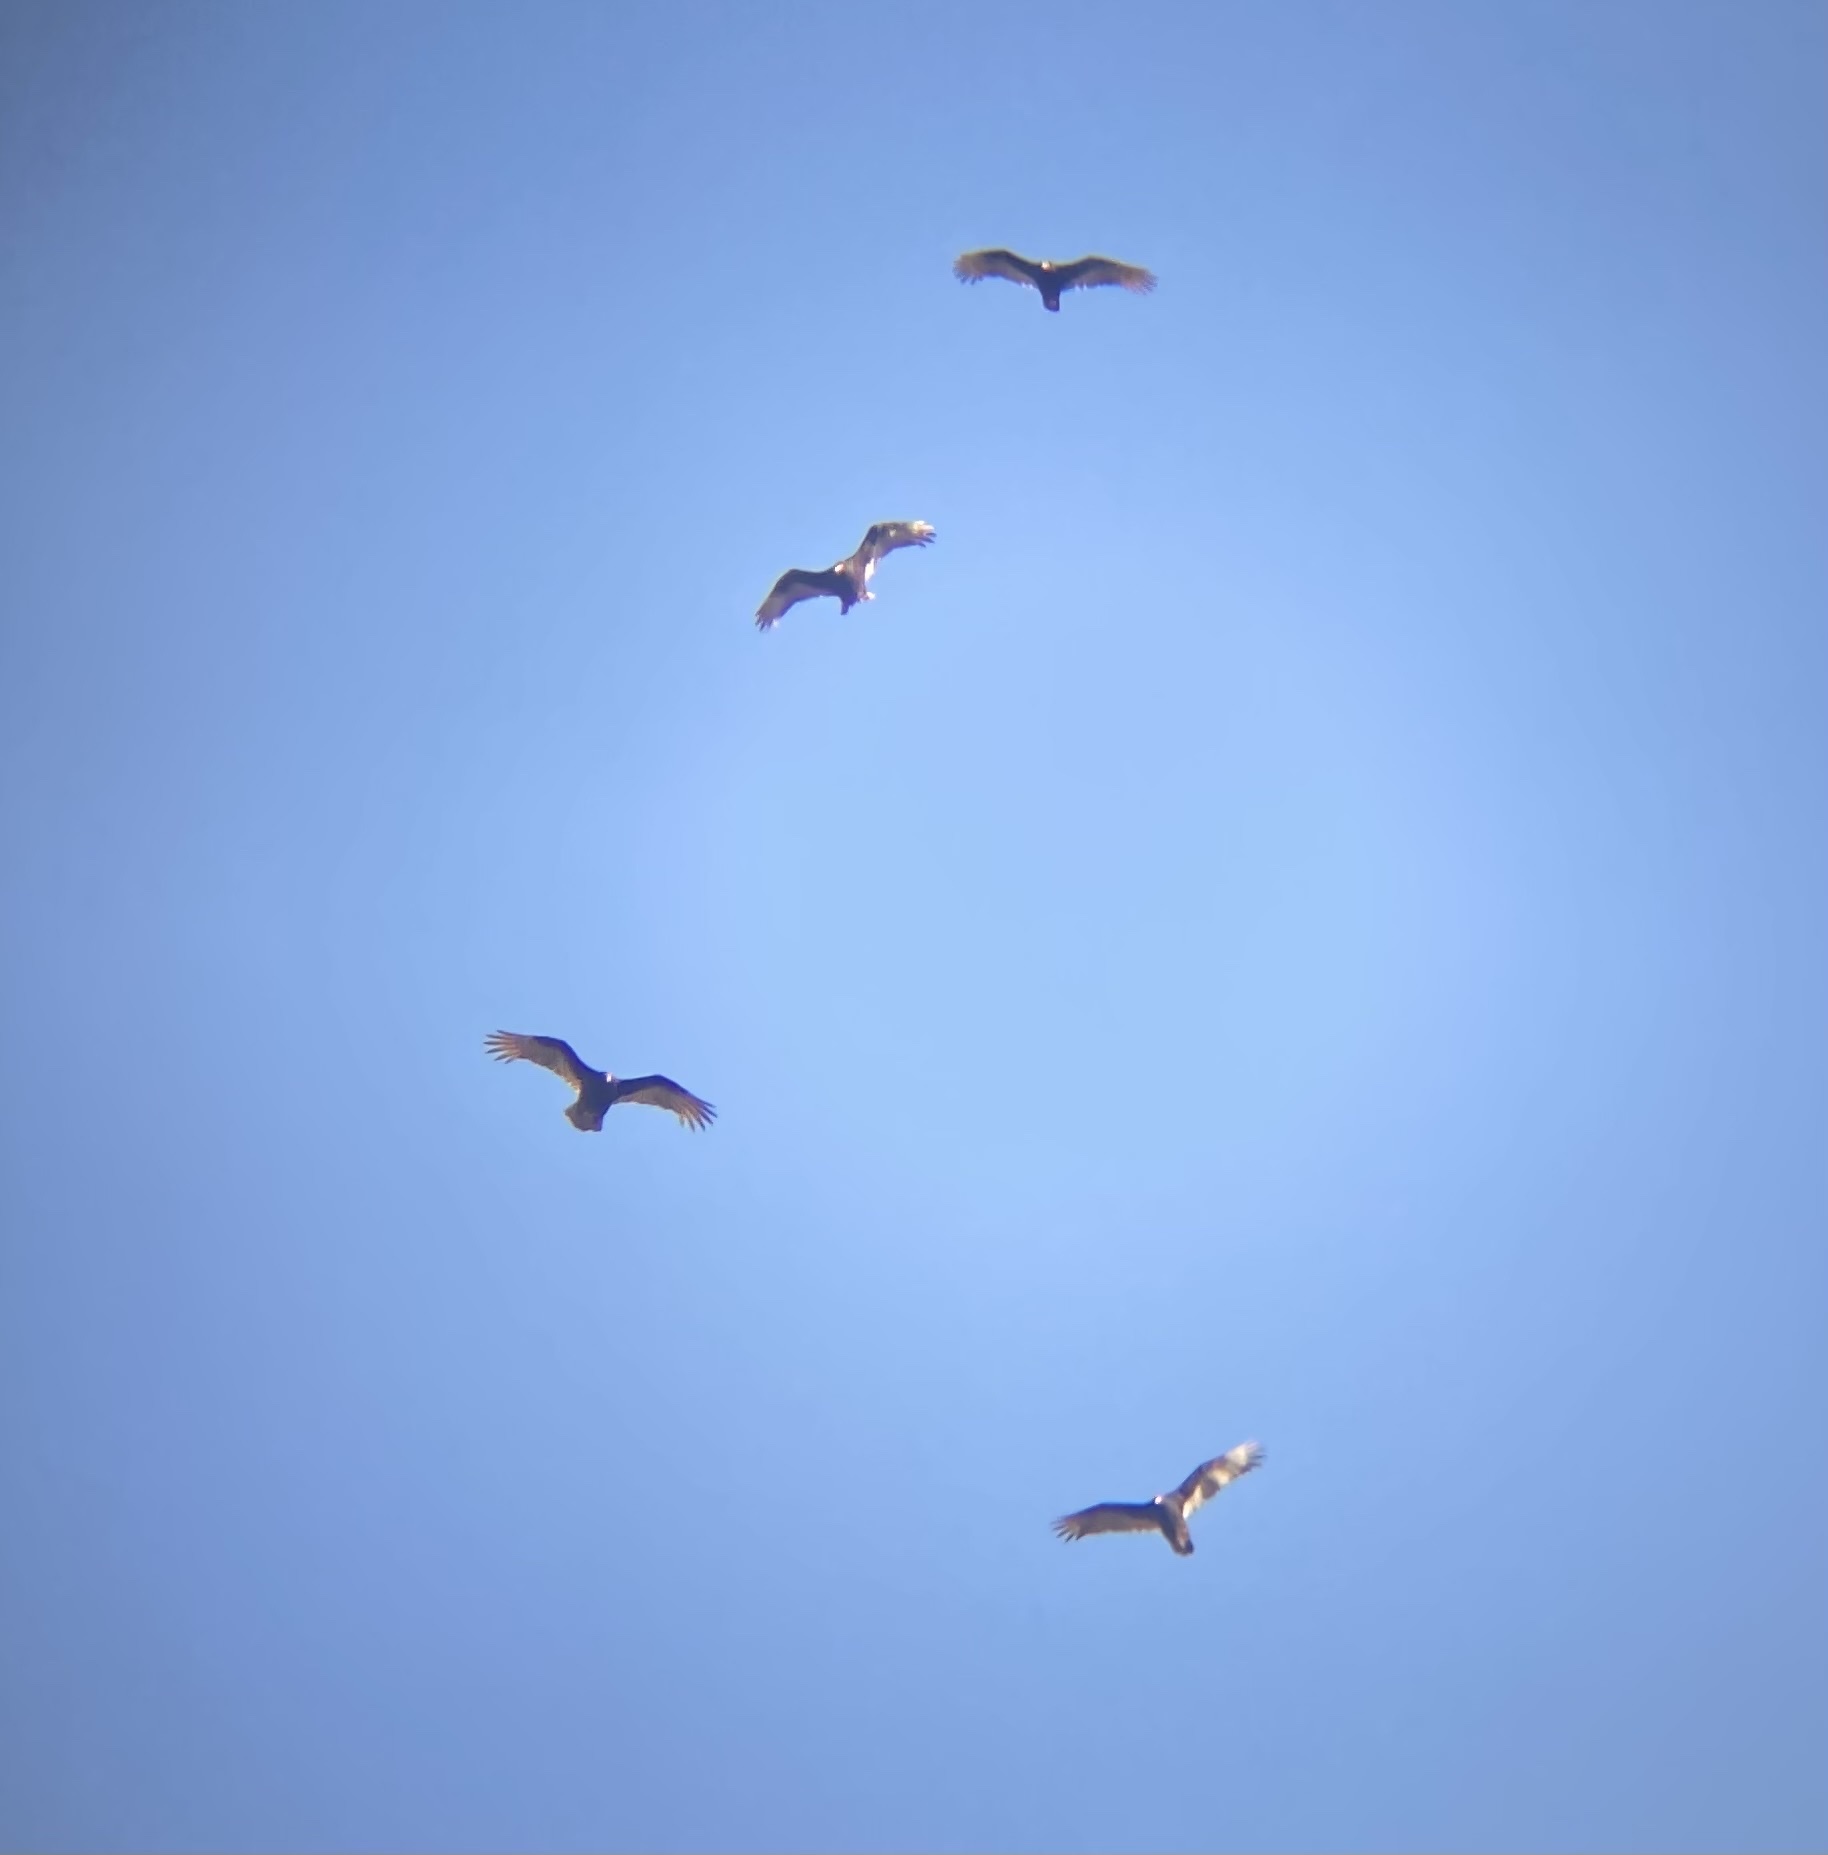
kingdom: Animalia
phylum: Chordata
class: Aves
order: Accipitriformes
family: Cathartidae
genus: Cathartes
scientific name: Cathartes aura
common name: Turkey vulture
